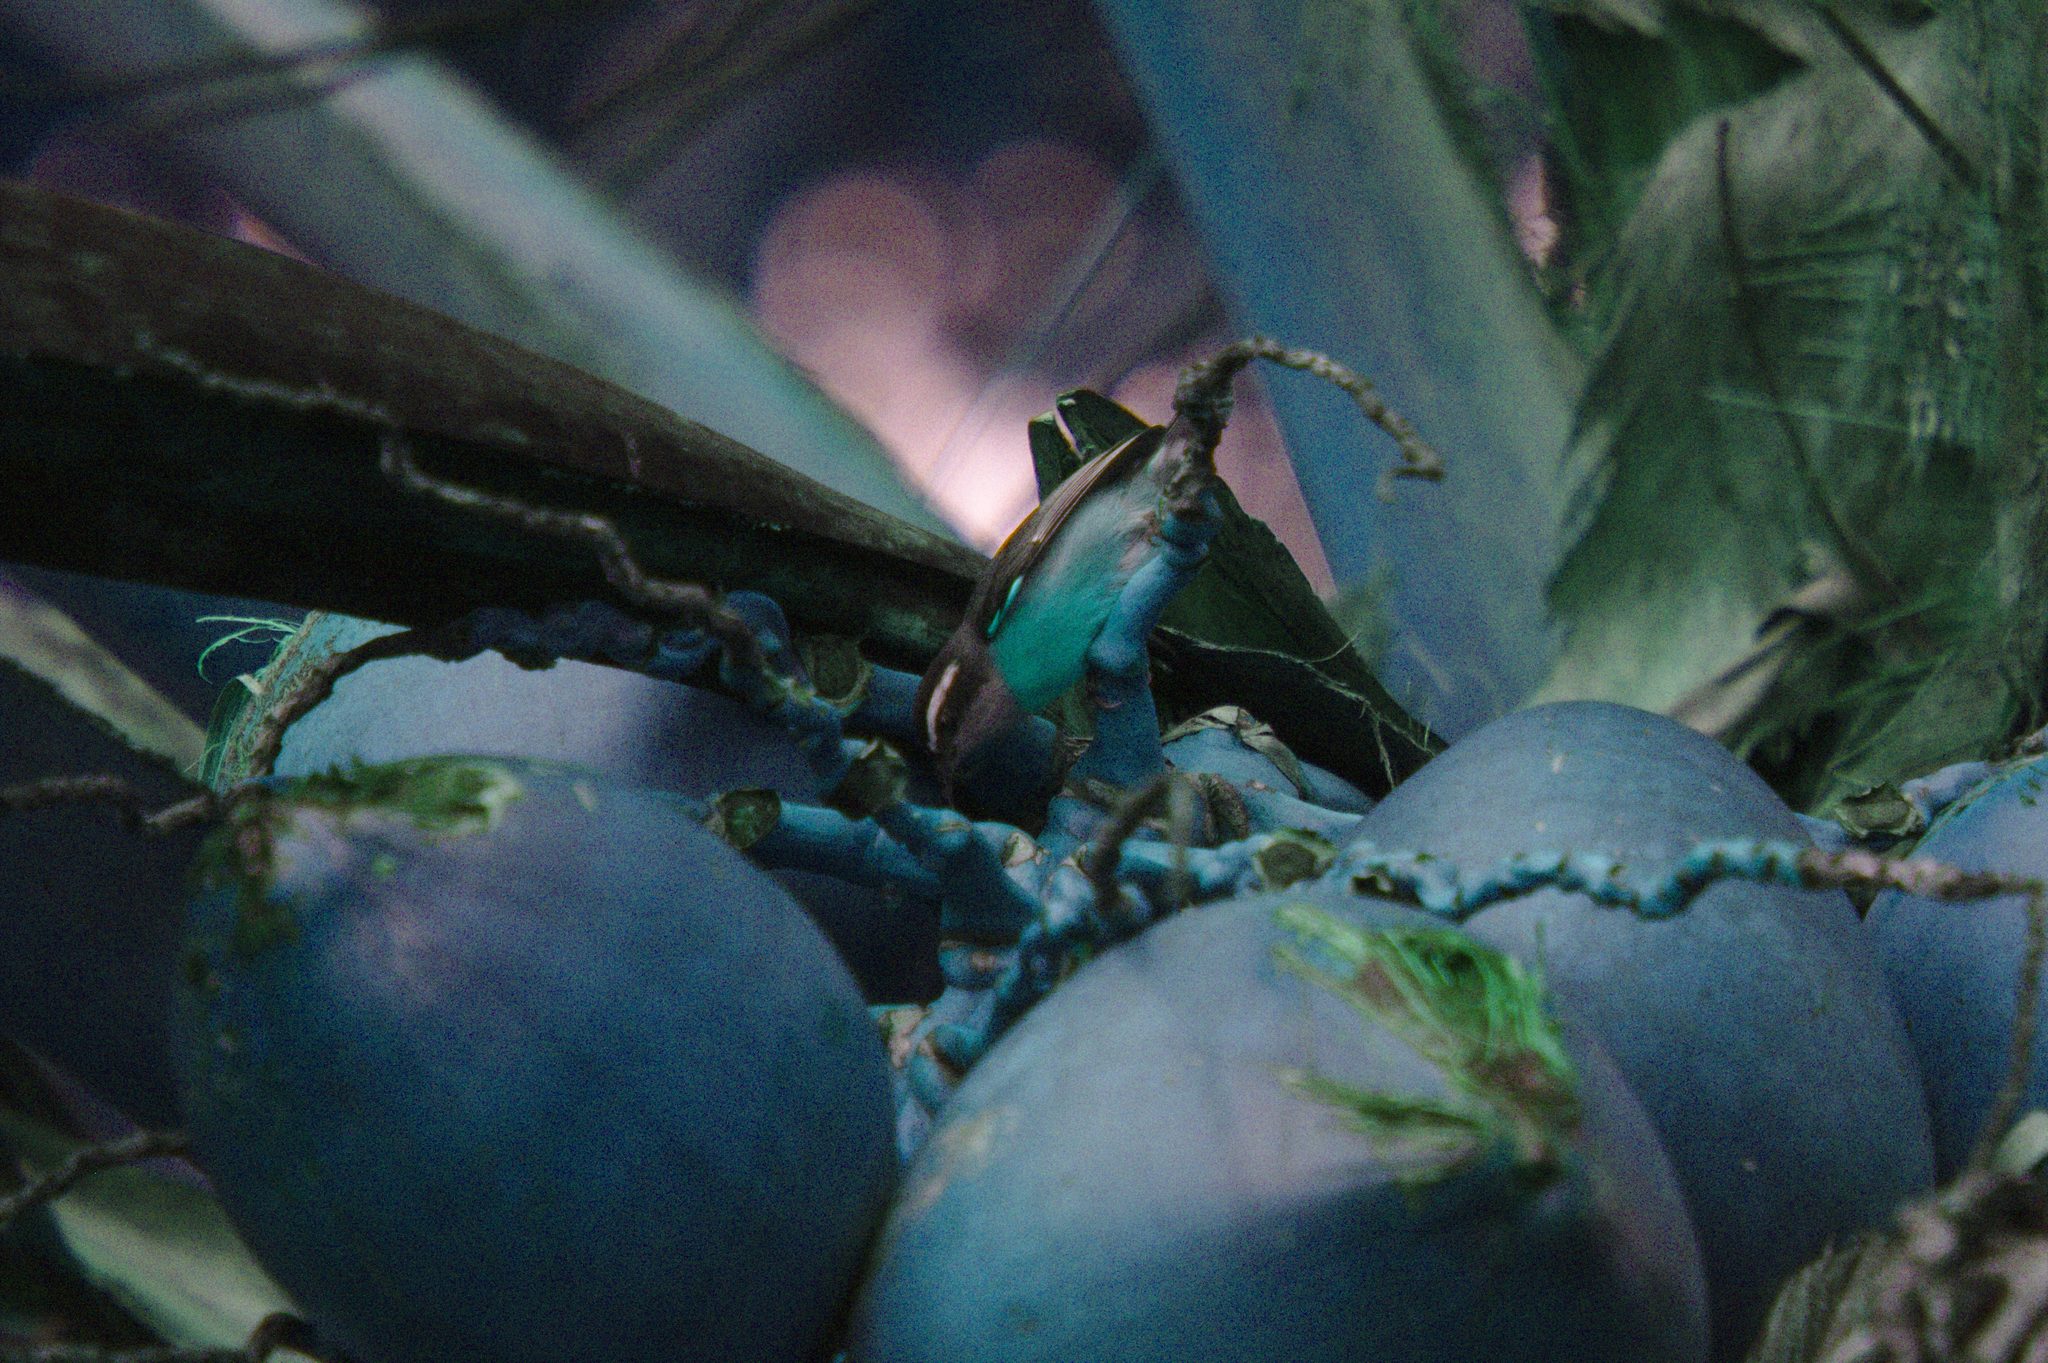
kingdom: Animalia
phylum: Chordata
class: Aves
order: Passeriformes
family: Thraupidae
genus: Coereba
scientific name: Coereba flaveola
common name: Bananaquit
